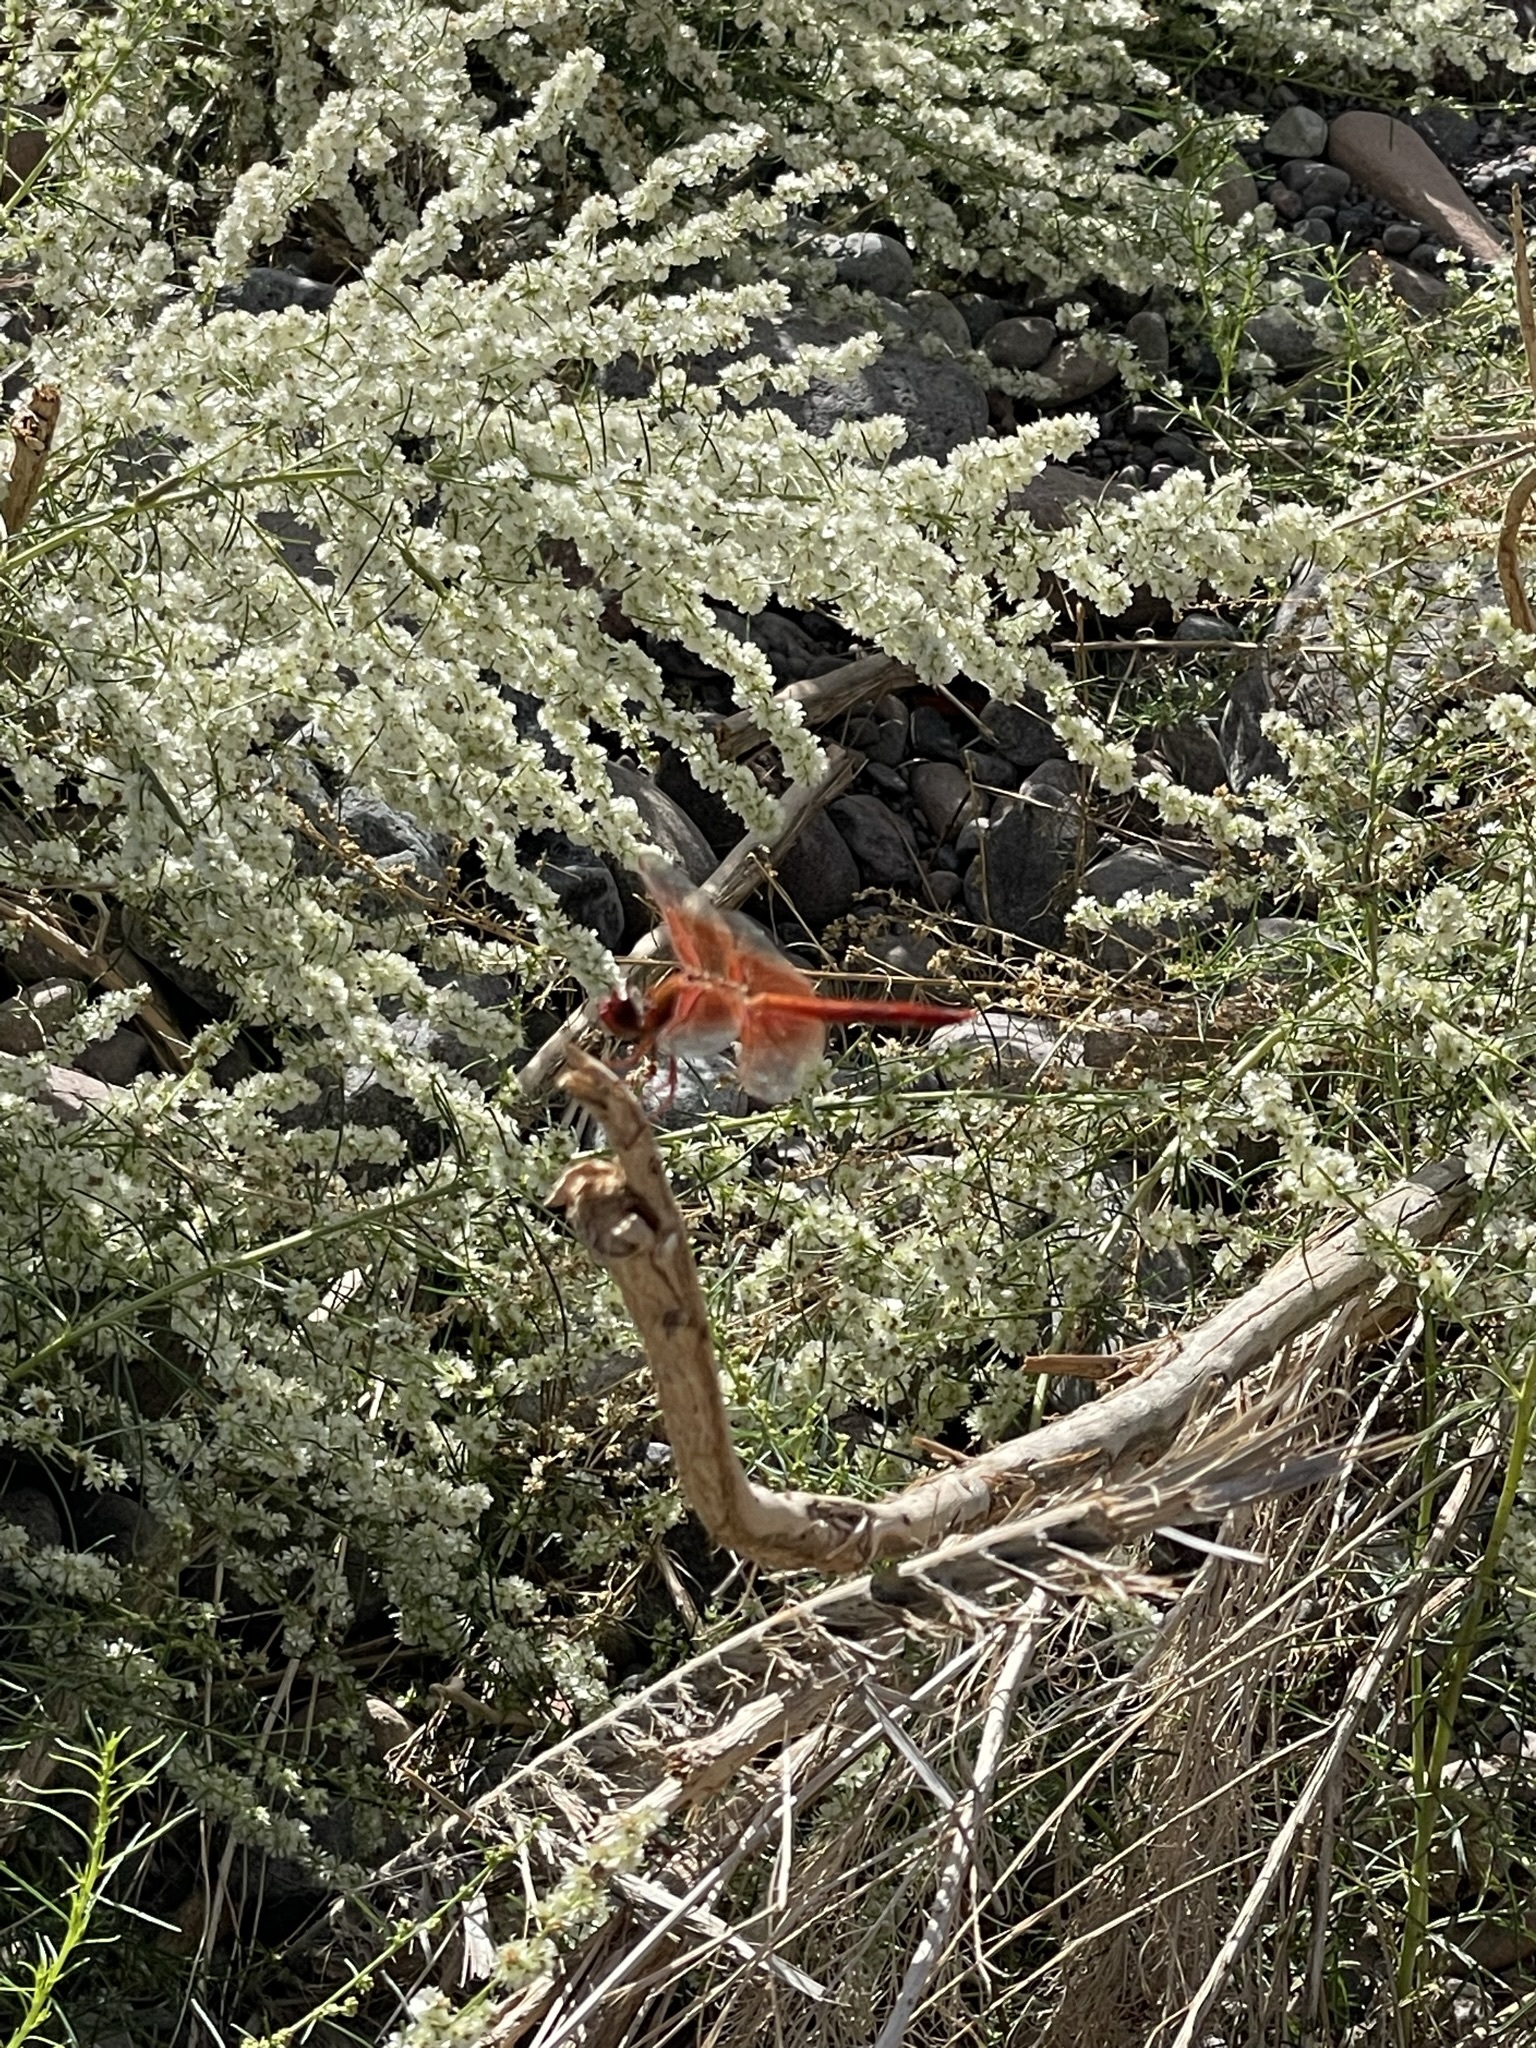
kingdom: Plantae
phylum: Tracheophyta
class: Magnoliopsida
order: Asterales
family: Asteraceae
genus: Ambrosia
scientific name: Ambrosia monogyra
